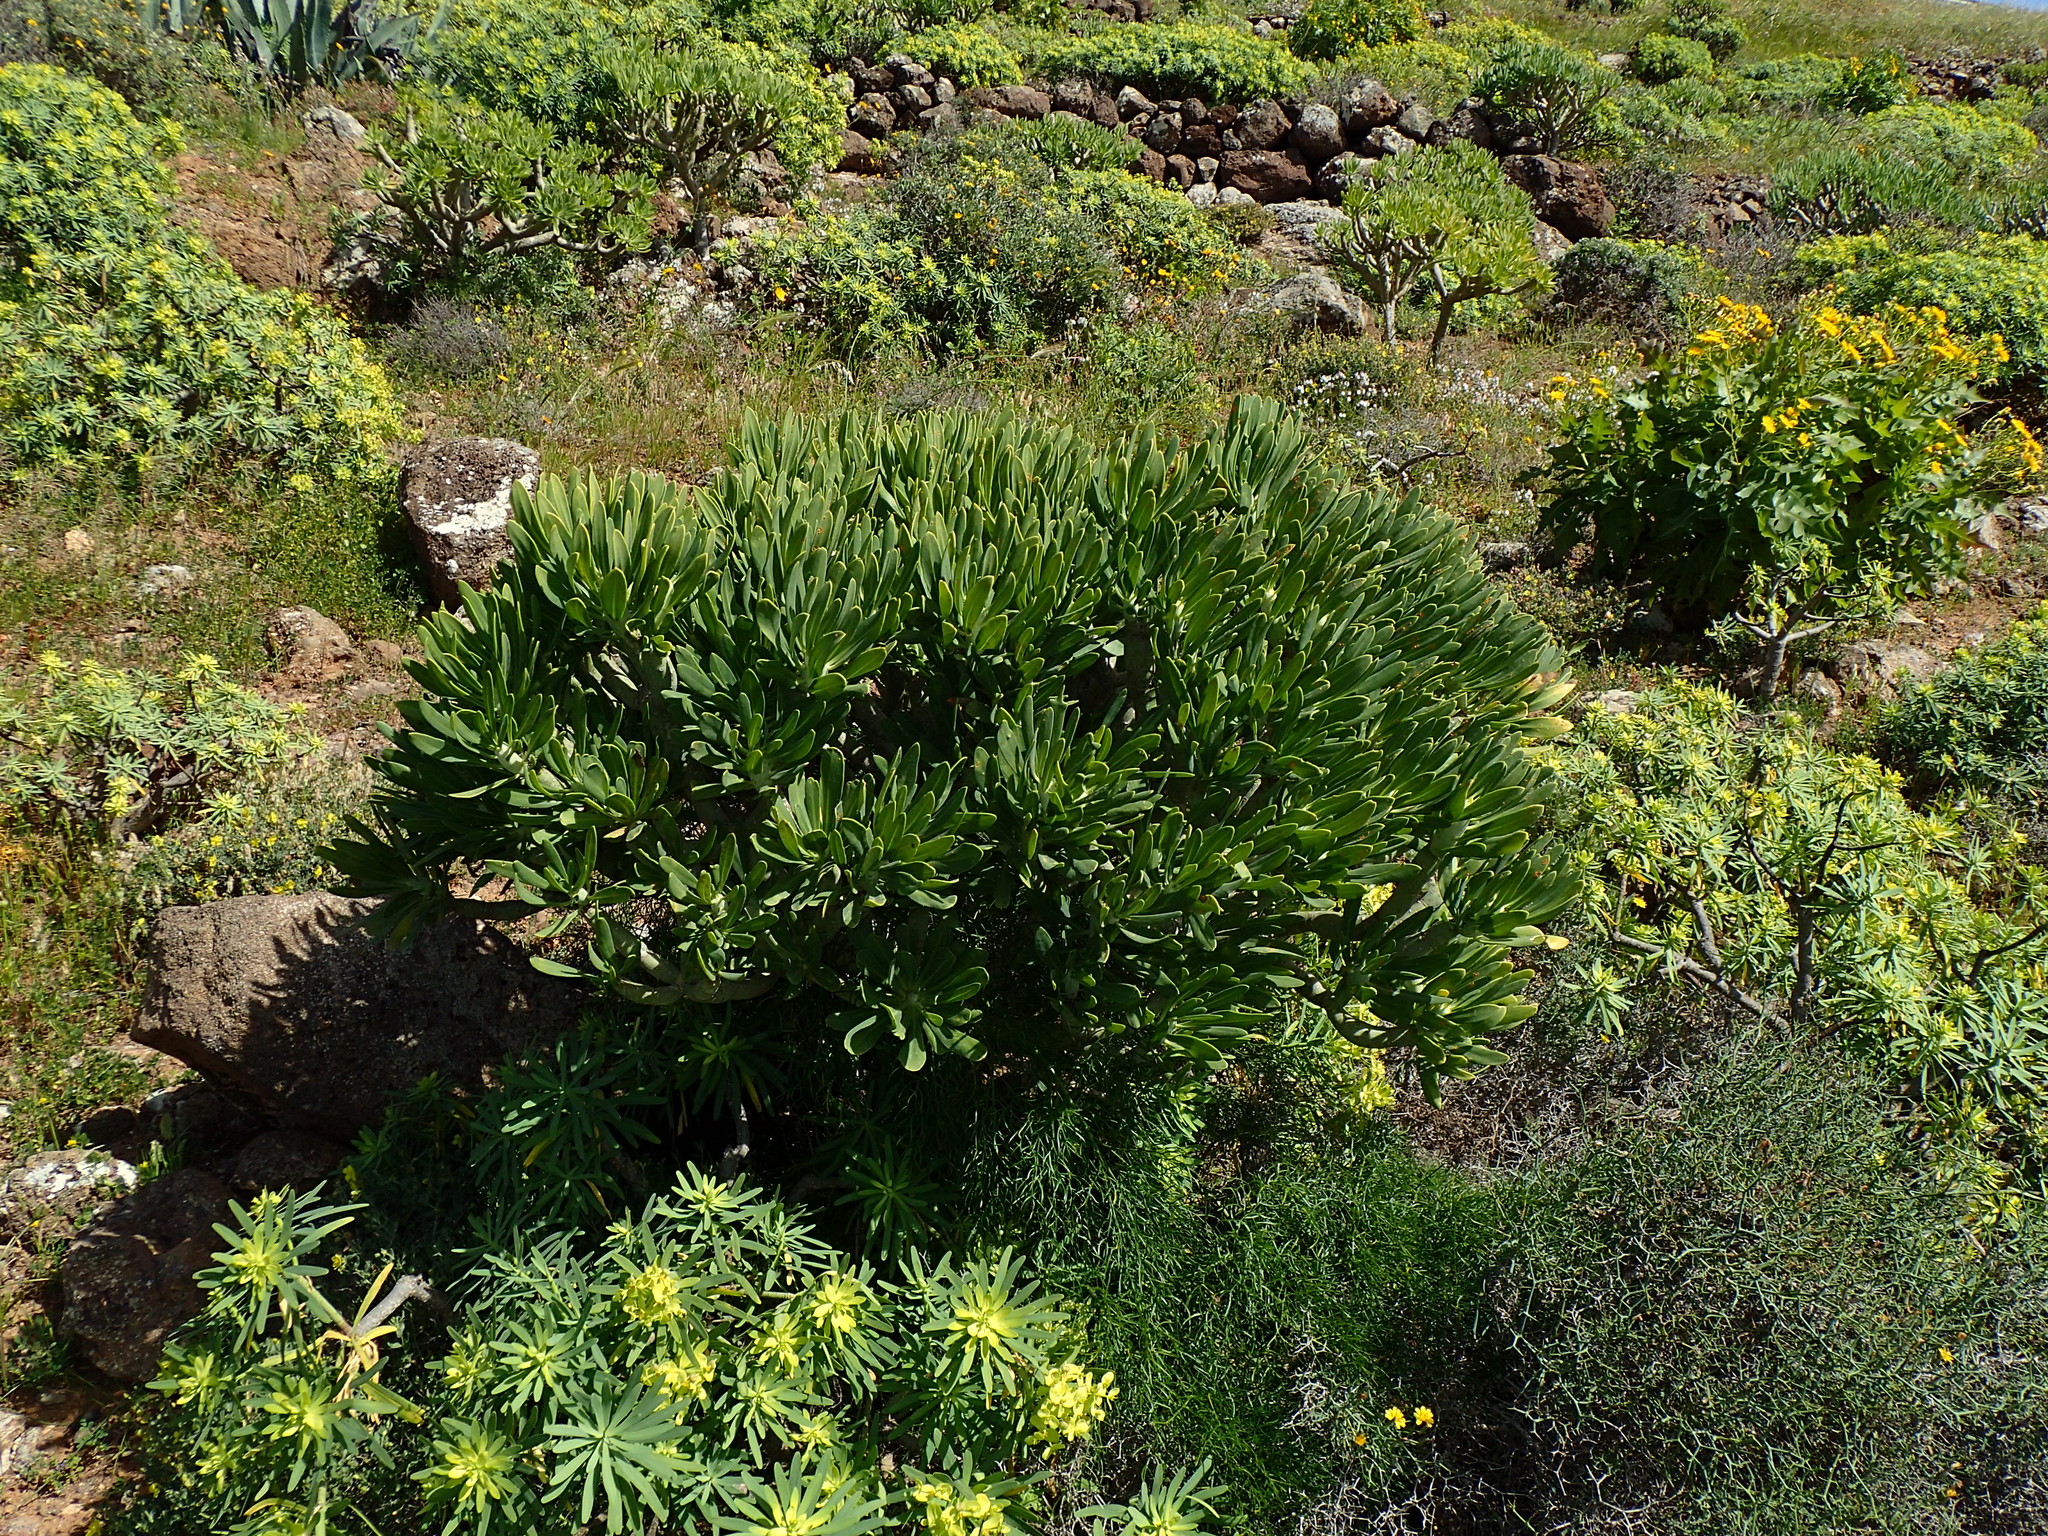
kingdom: Plantae
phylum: Tracheophyta
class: Magnoliopsida
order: Asterales
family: Asteraceae
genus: Kleinia
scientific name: Kleinia neriifolia
